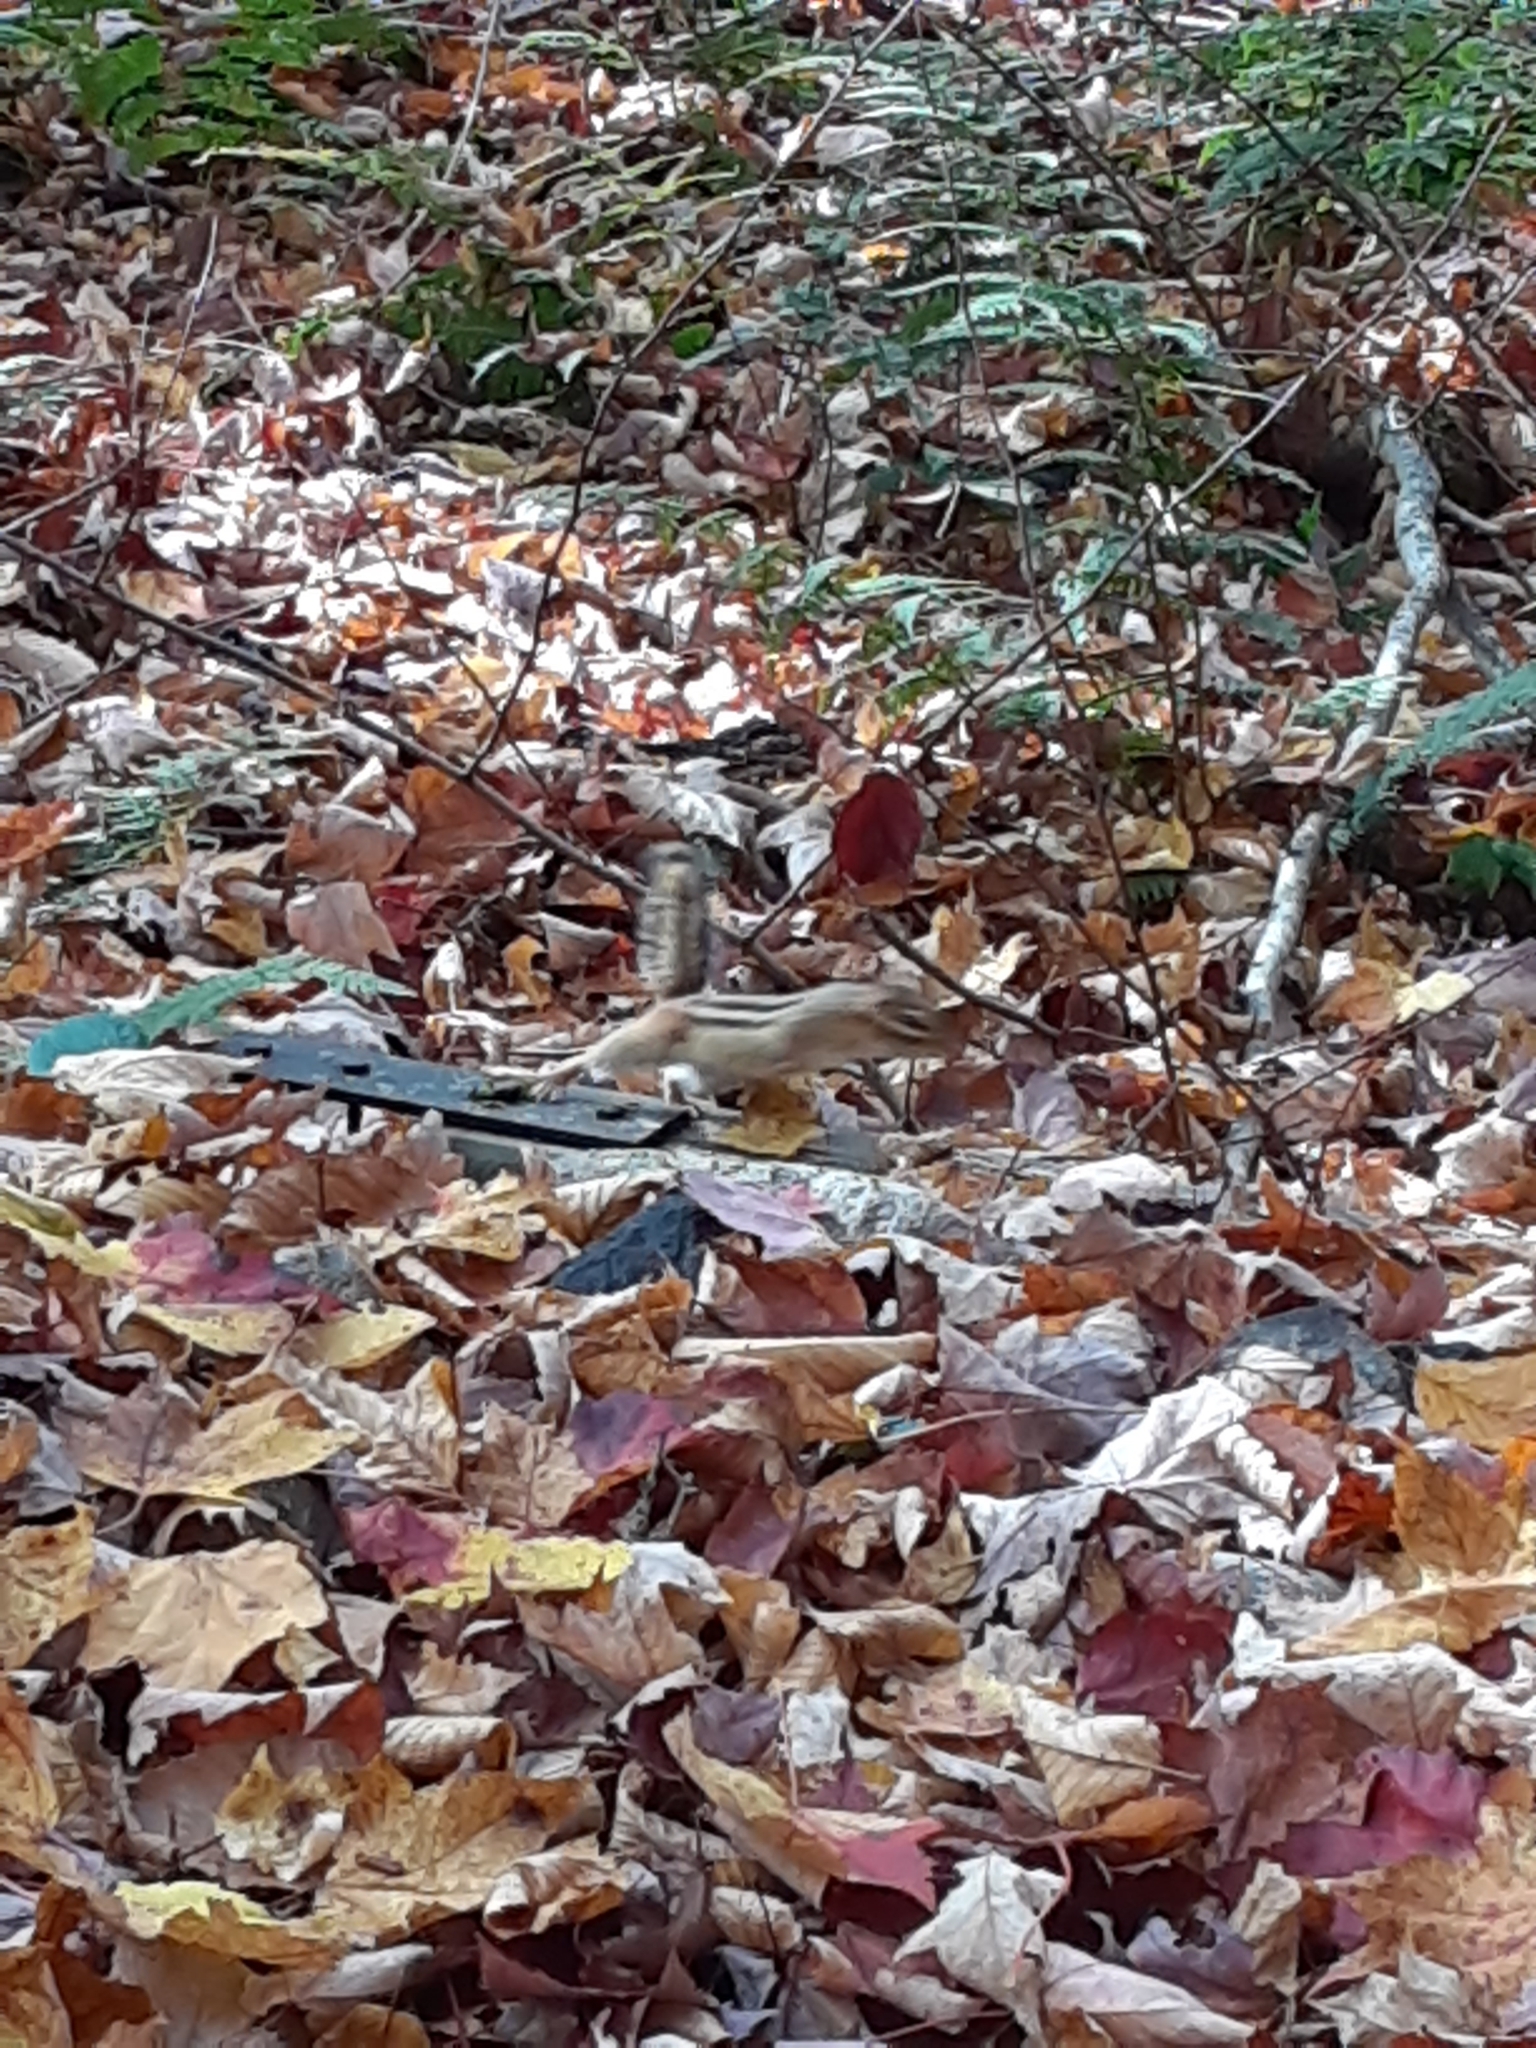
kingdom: Animalia
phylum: Chordata
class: Mammalia
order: Rodentia
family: Sciuridae
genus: Tamias
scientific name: Tamias striatus
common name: Eastern chipmunk
